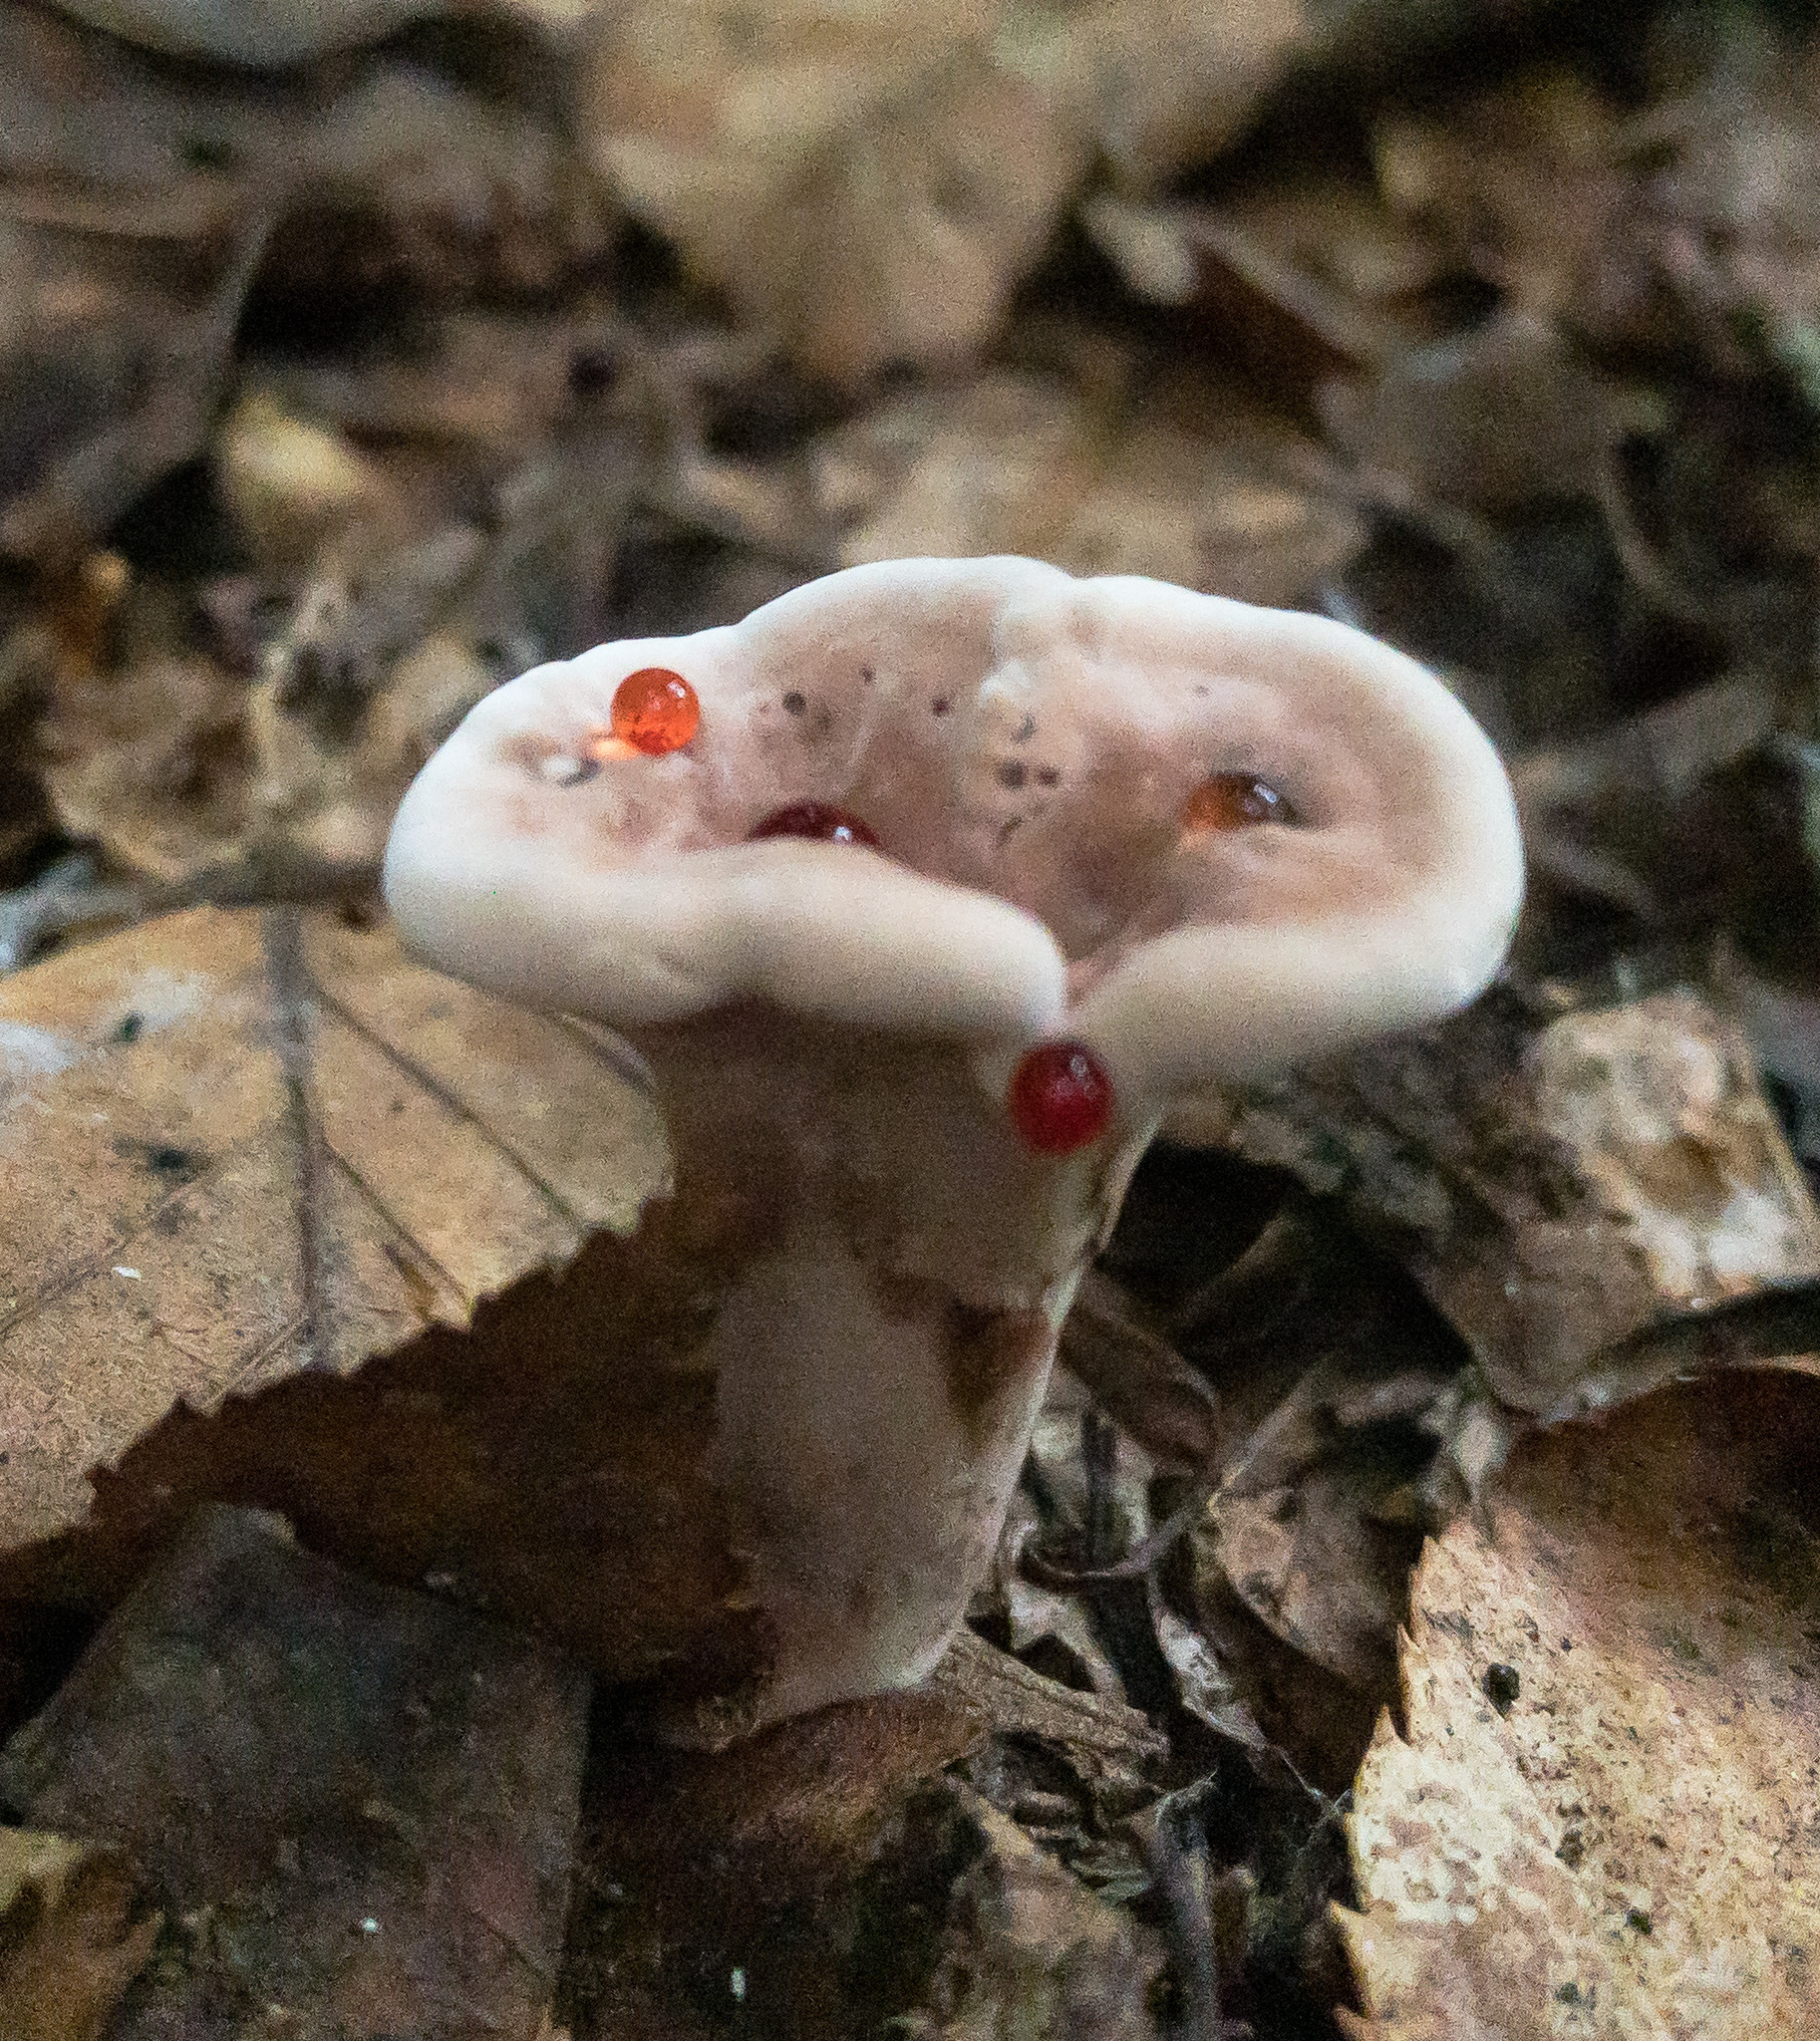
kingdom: Fungi
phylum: Basidiomycota
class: Agaricomycetes
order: Thelephorales
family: Bankeraceae
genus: Hydnellum
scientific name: Hydnellum peckii
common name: Devil's tooth
